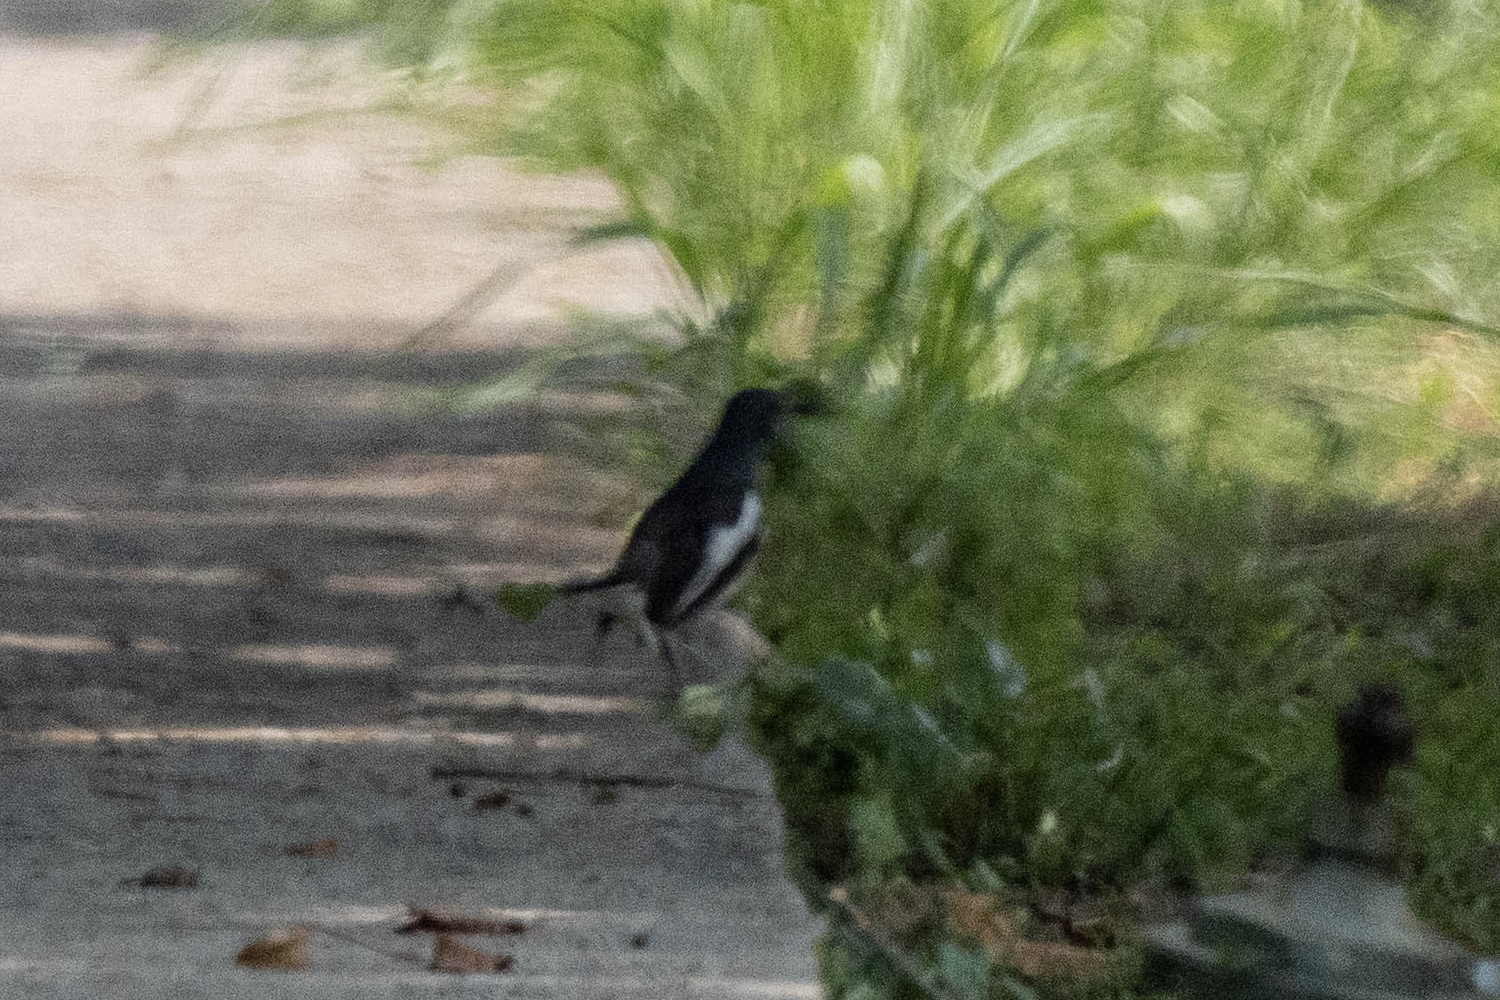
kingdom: Animalia
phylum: Chordata
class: Aves
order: Passeriformes
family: Muscicapidae
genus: Copsychus
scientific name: Copsychus saularis
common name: Oriental magpie-robin
